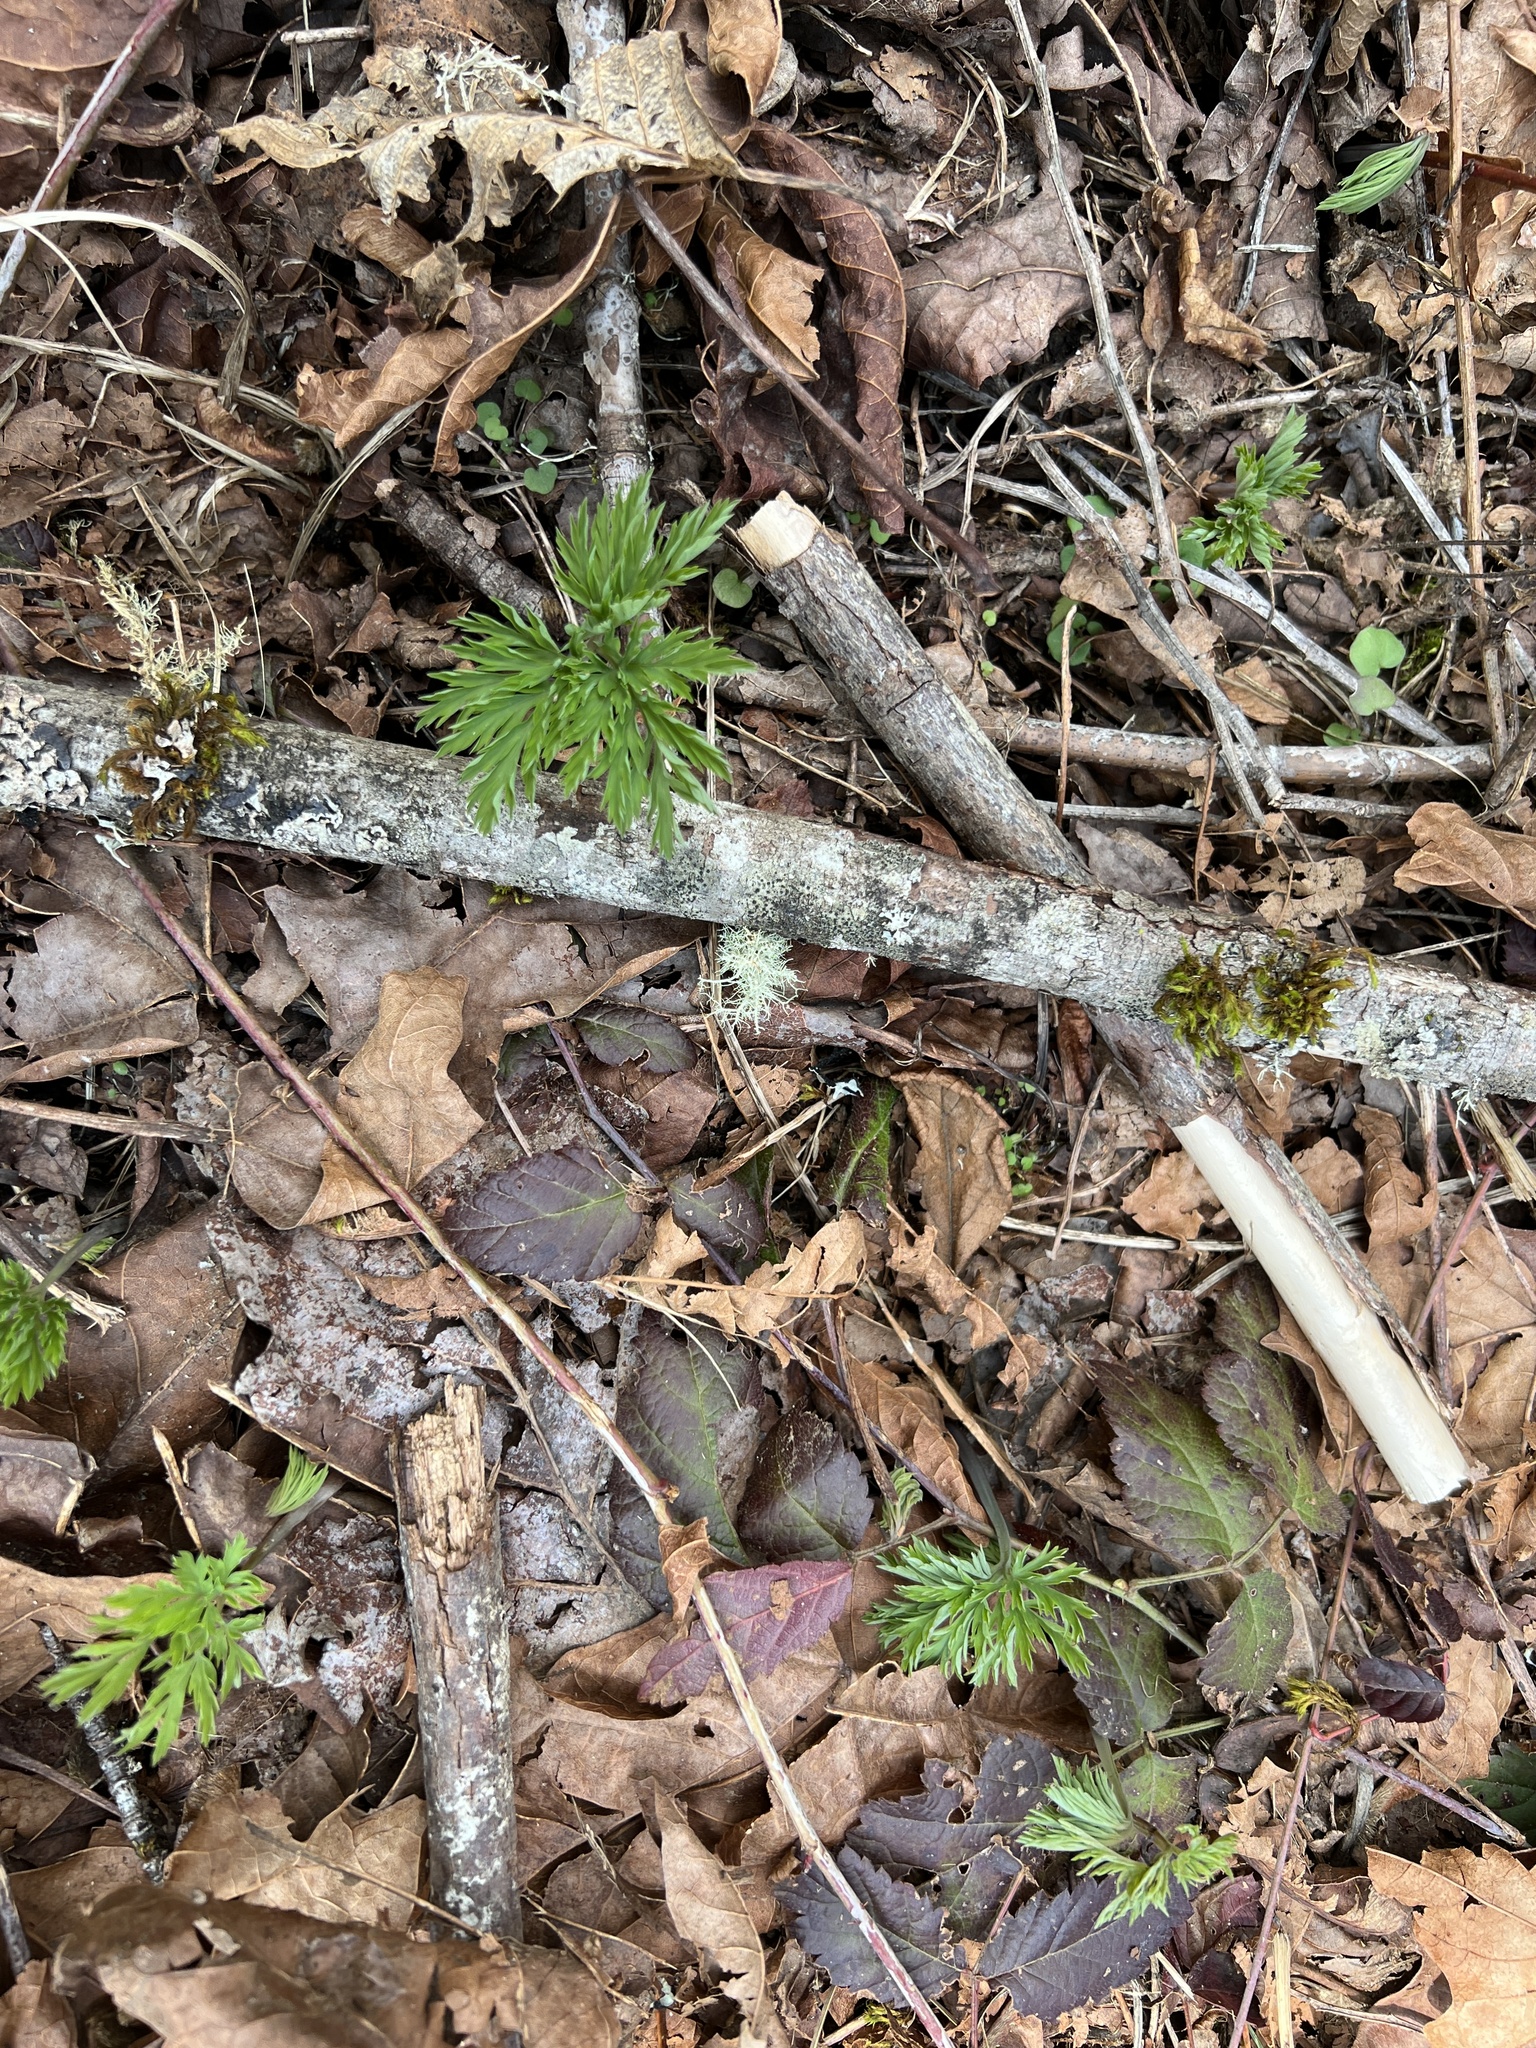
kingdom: Plantae
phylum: Tracheophyta
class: Magnoliopsida
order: Ranunculales
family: Papaveraceae
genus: Dicentra
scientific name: Dicentra formosa
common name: Bleeding-heart
